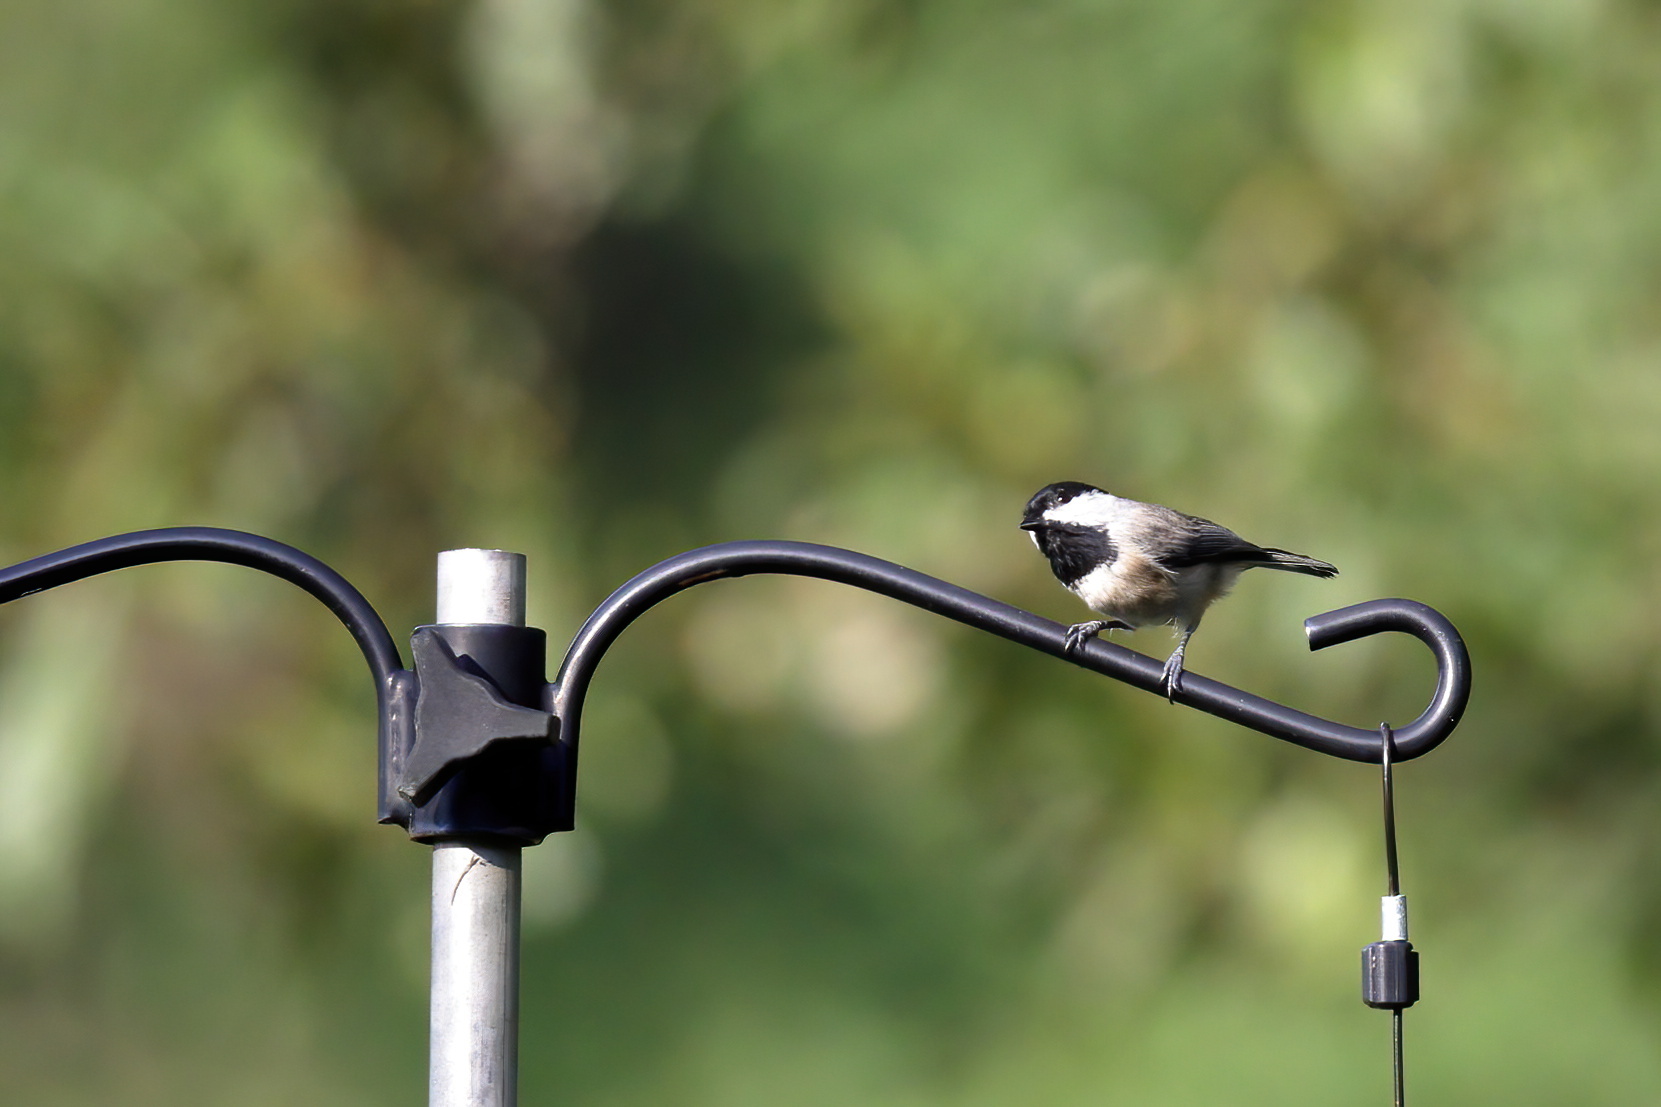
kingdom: Animalia
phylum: Chordata
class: Aves
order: Passeriformes
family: Paridae
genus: Poecile
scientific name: Poecile carolinensis
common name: Carolina chickadee
